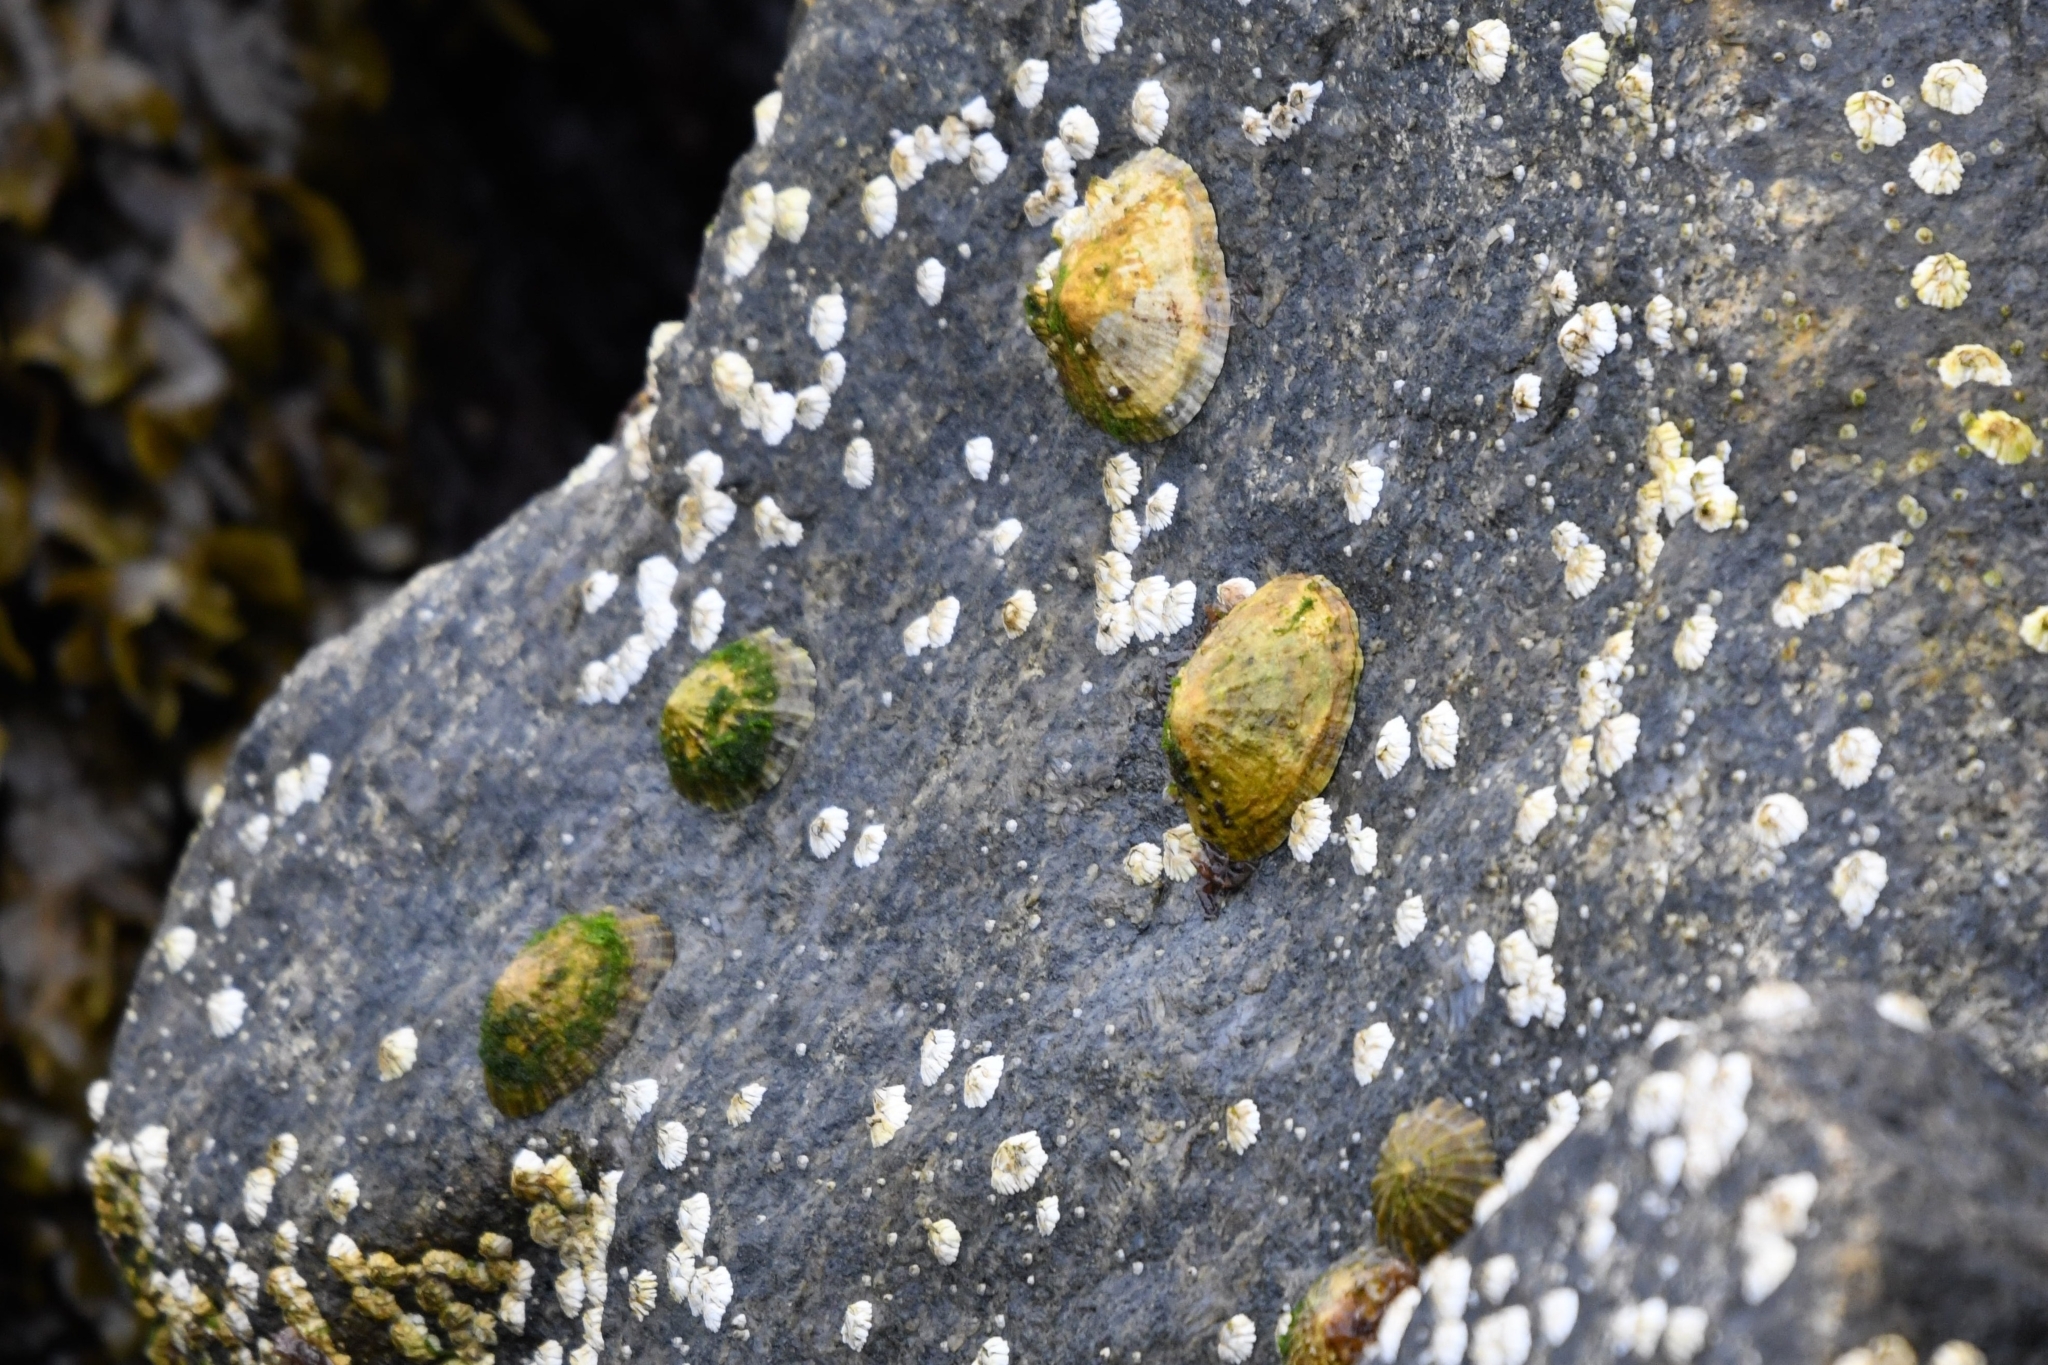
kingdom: Animalia
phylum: Mollusca
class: Gastropoda
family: Patellidae
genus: Patella
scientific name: Patella vulgata
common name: Common limpet
